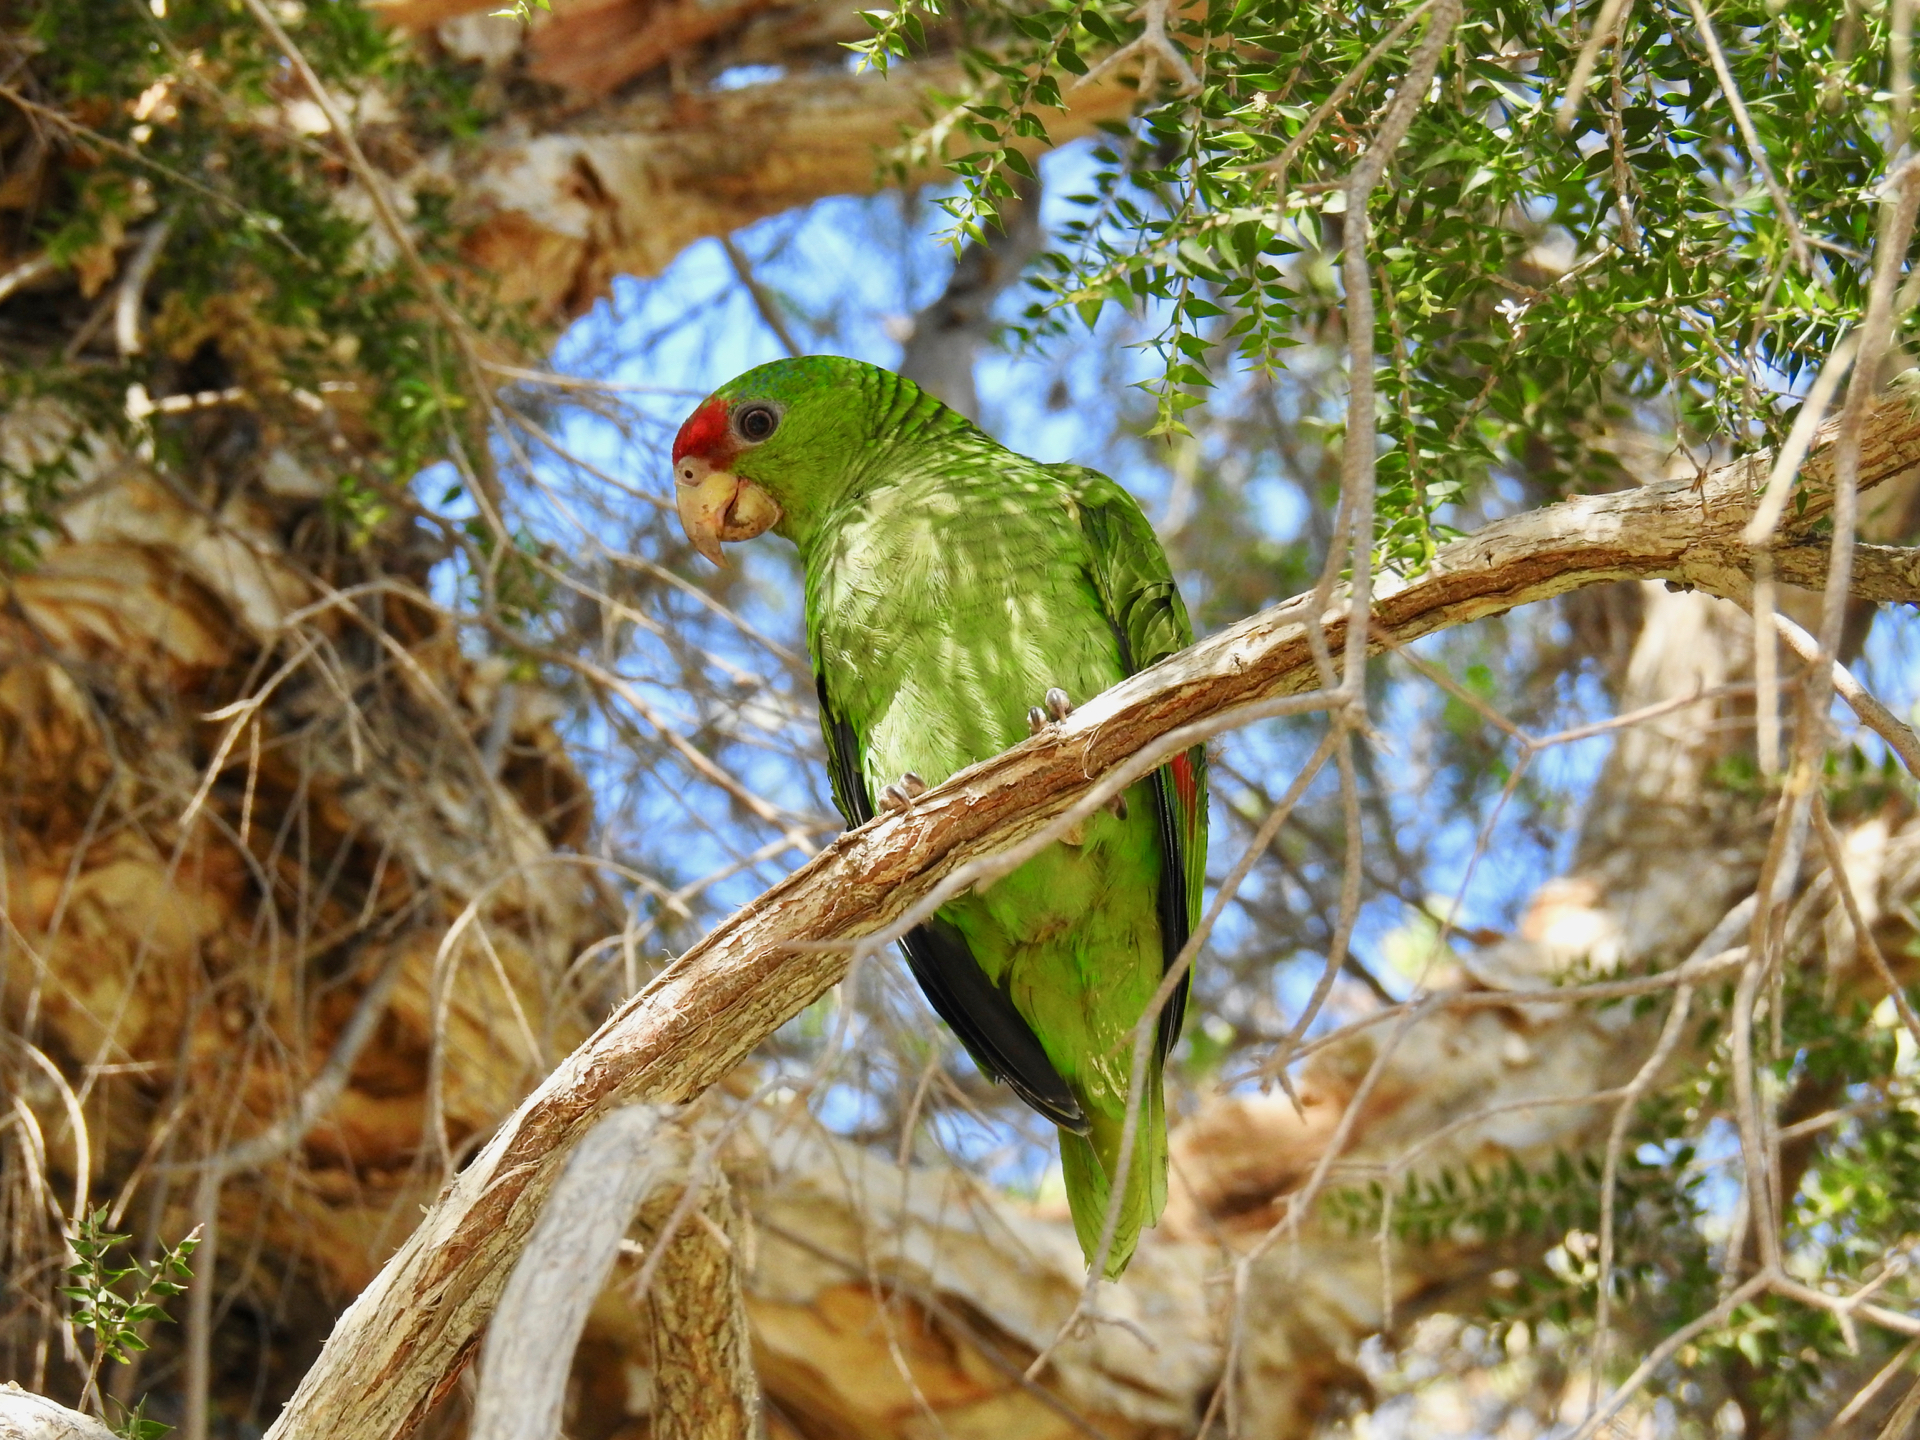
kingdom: Animalia
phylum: Chordata
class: Aves
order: Psittaciformes
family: Psittacidae
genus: Amazona
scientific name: Amazona viridigenalis
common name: Red-crowned amazon
